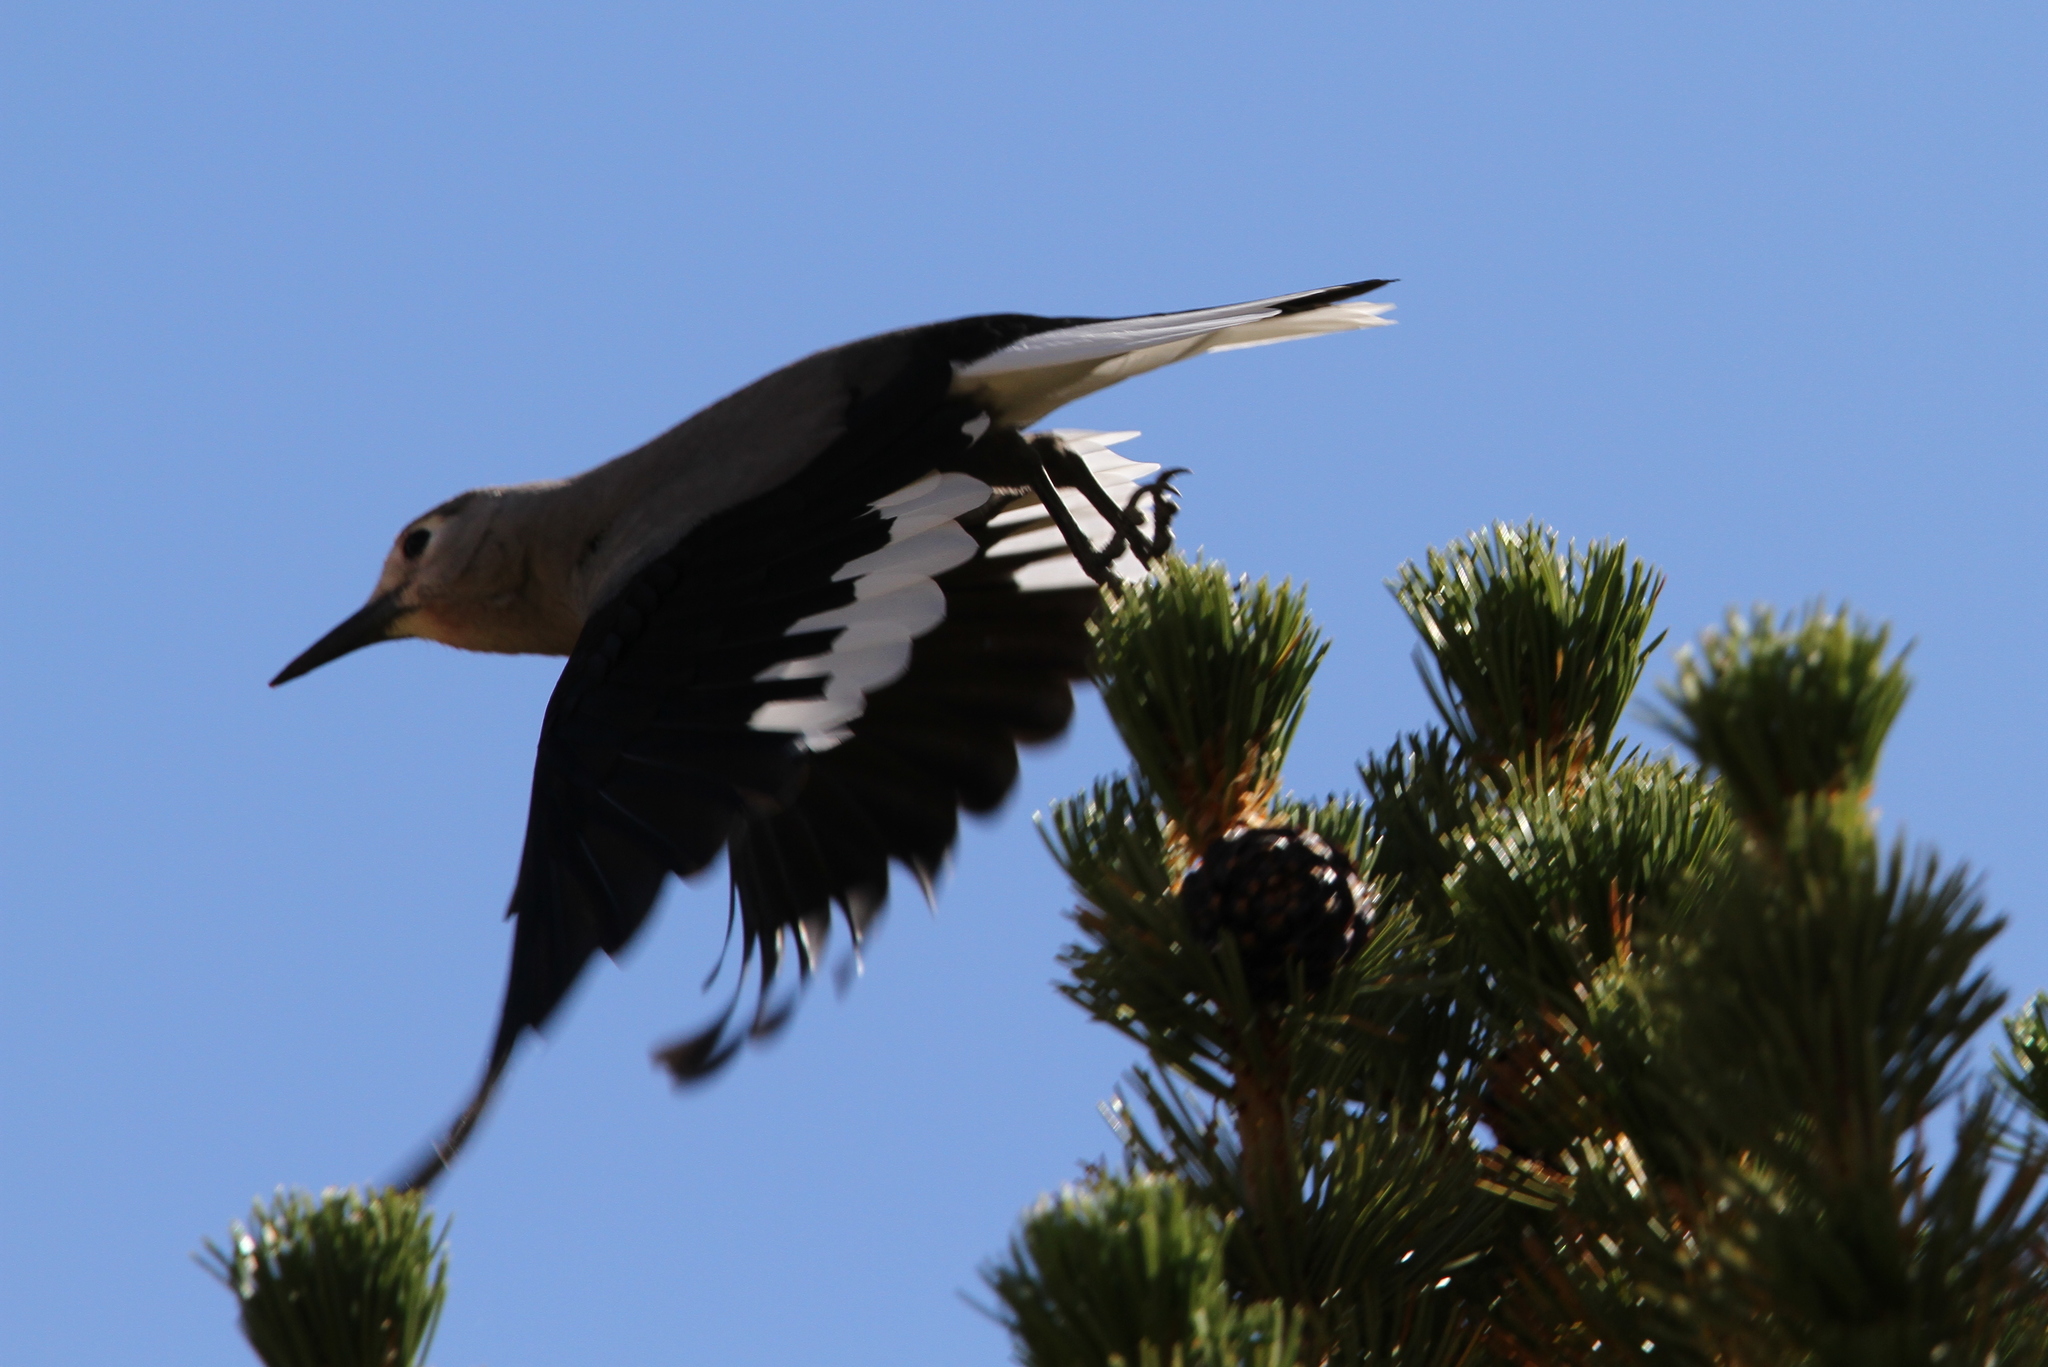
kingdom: Animalia
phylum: Chordata
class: Aves
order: Passeriformes
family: Corvidae
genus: Nucifraga
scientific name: Nucifraga columbiana
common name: Clark's nutcracker
